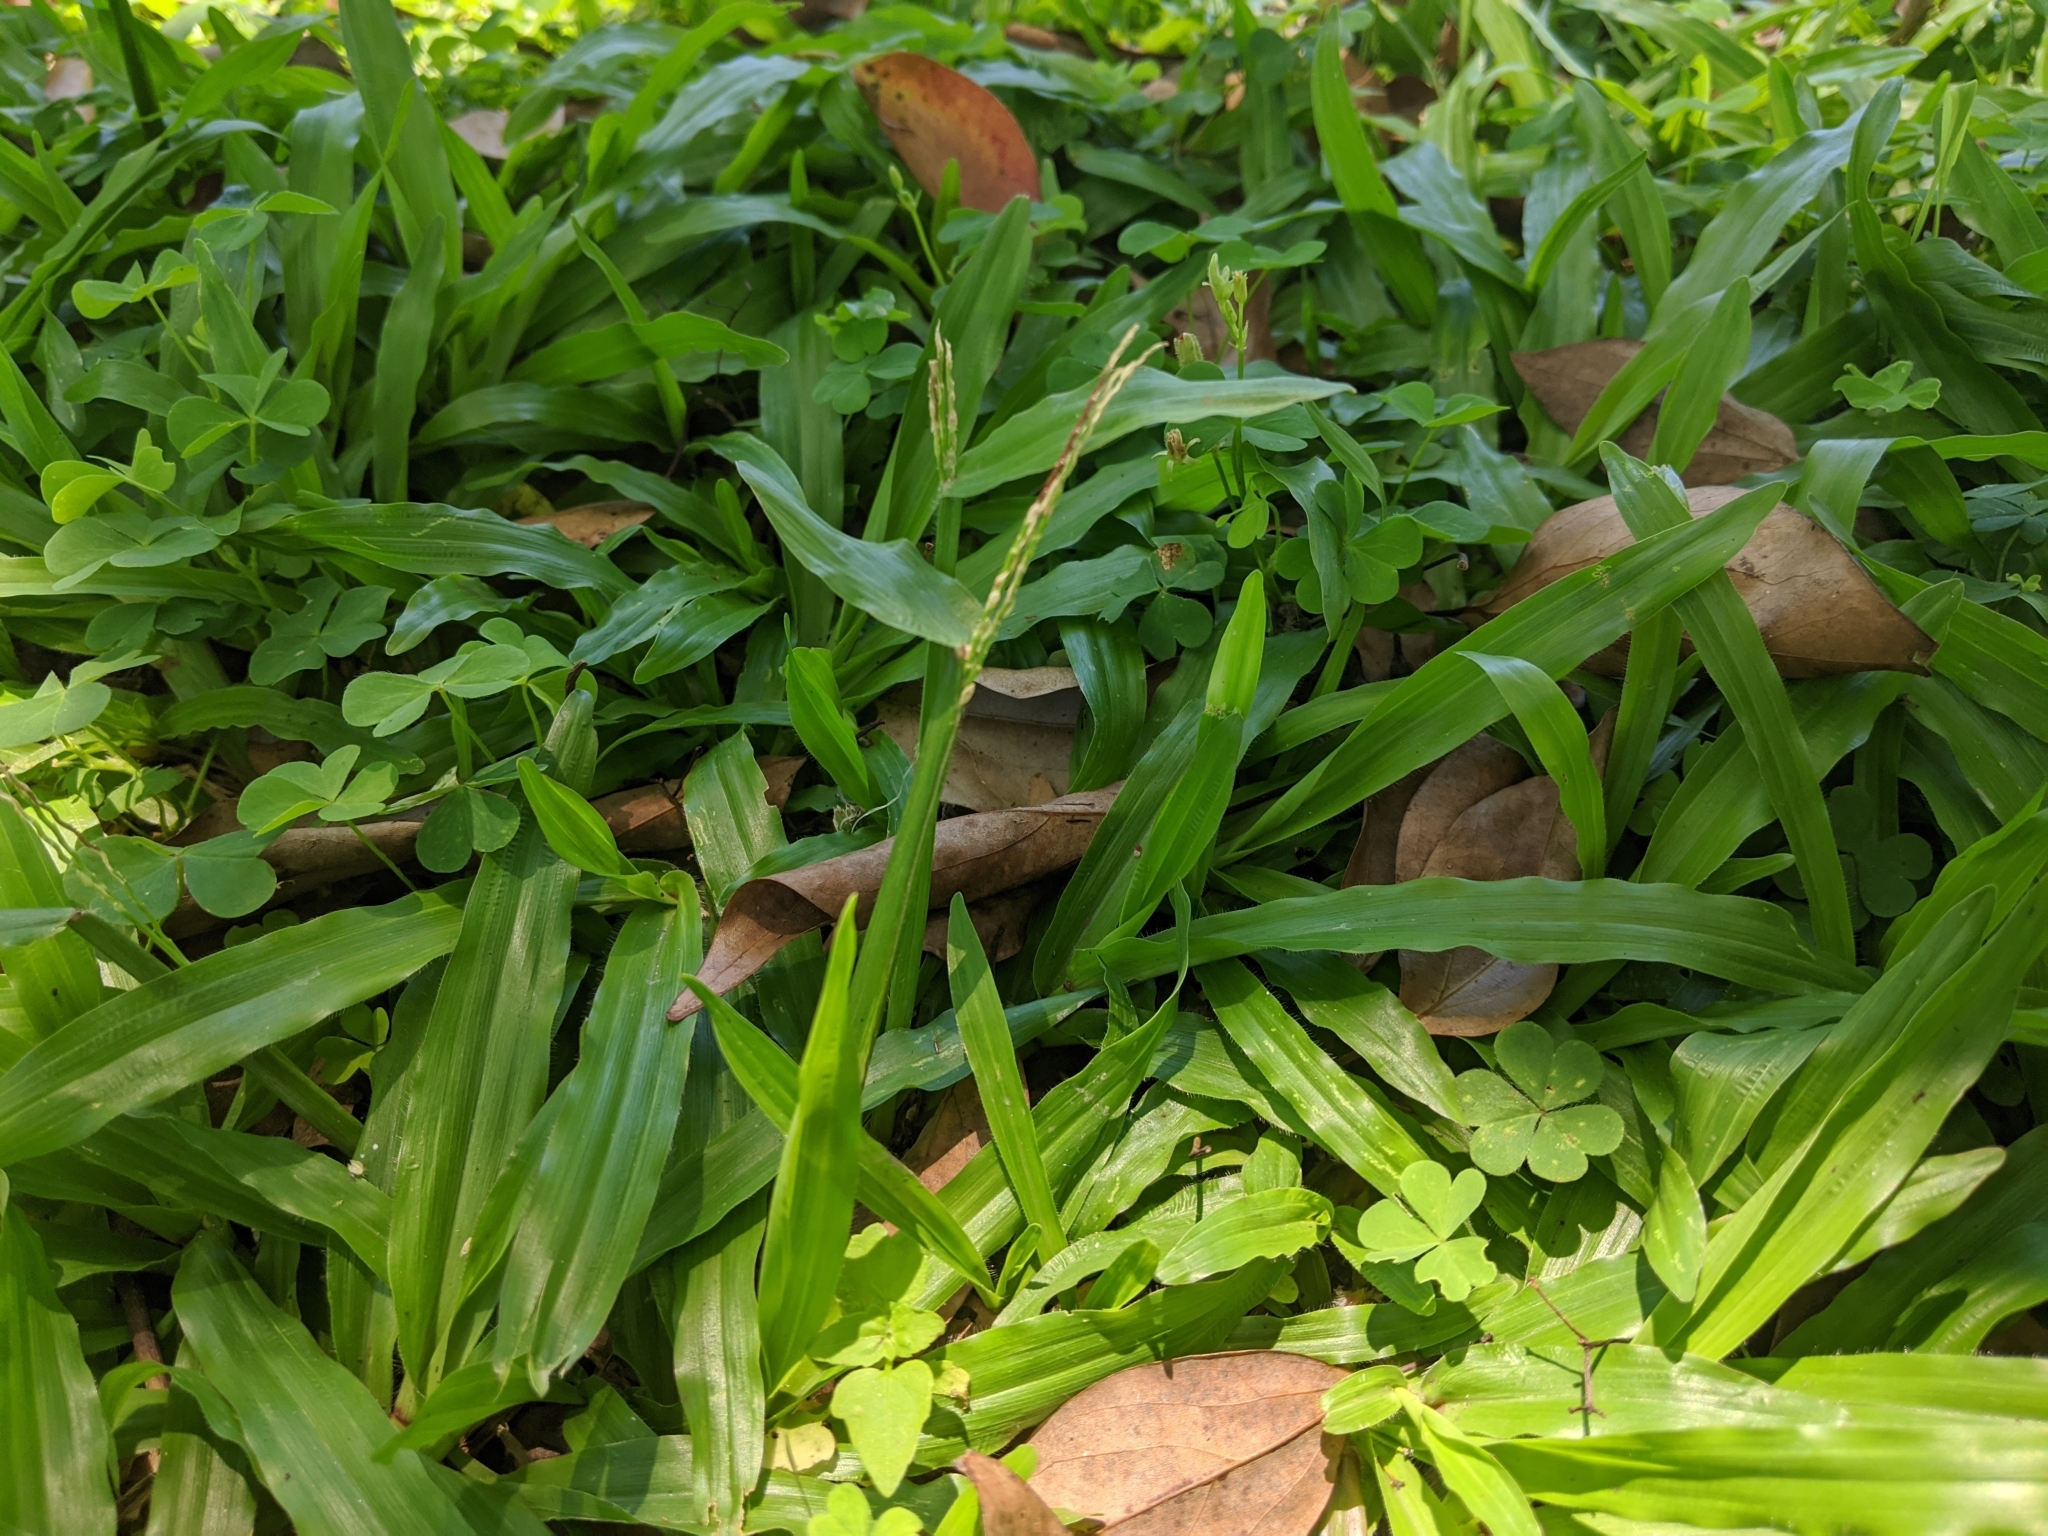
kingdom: Plantae
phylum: Tracheophyta
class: Liliopsida
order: Poales
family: Poaceae
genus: Axonopus
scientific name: Axonopus compressus
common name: American carpet grass
